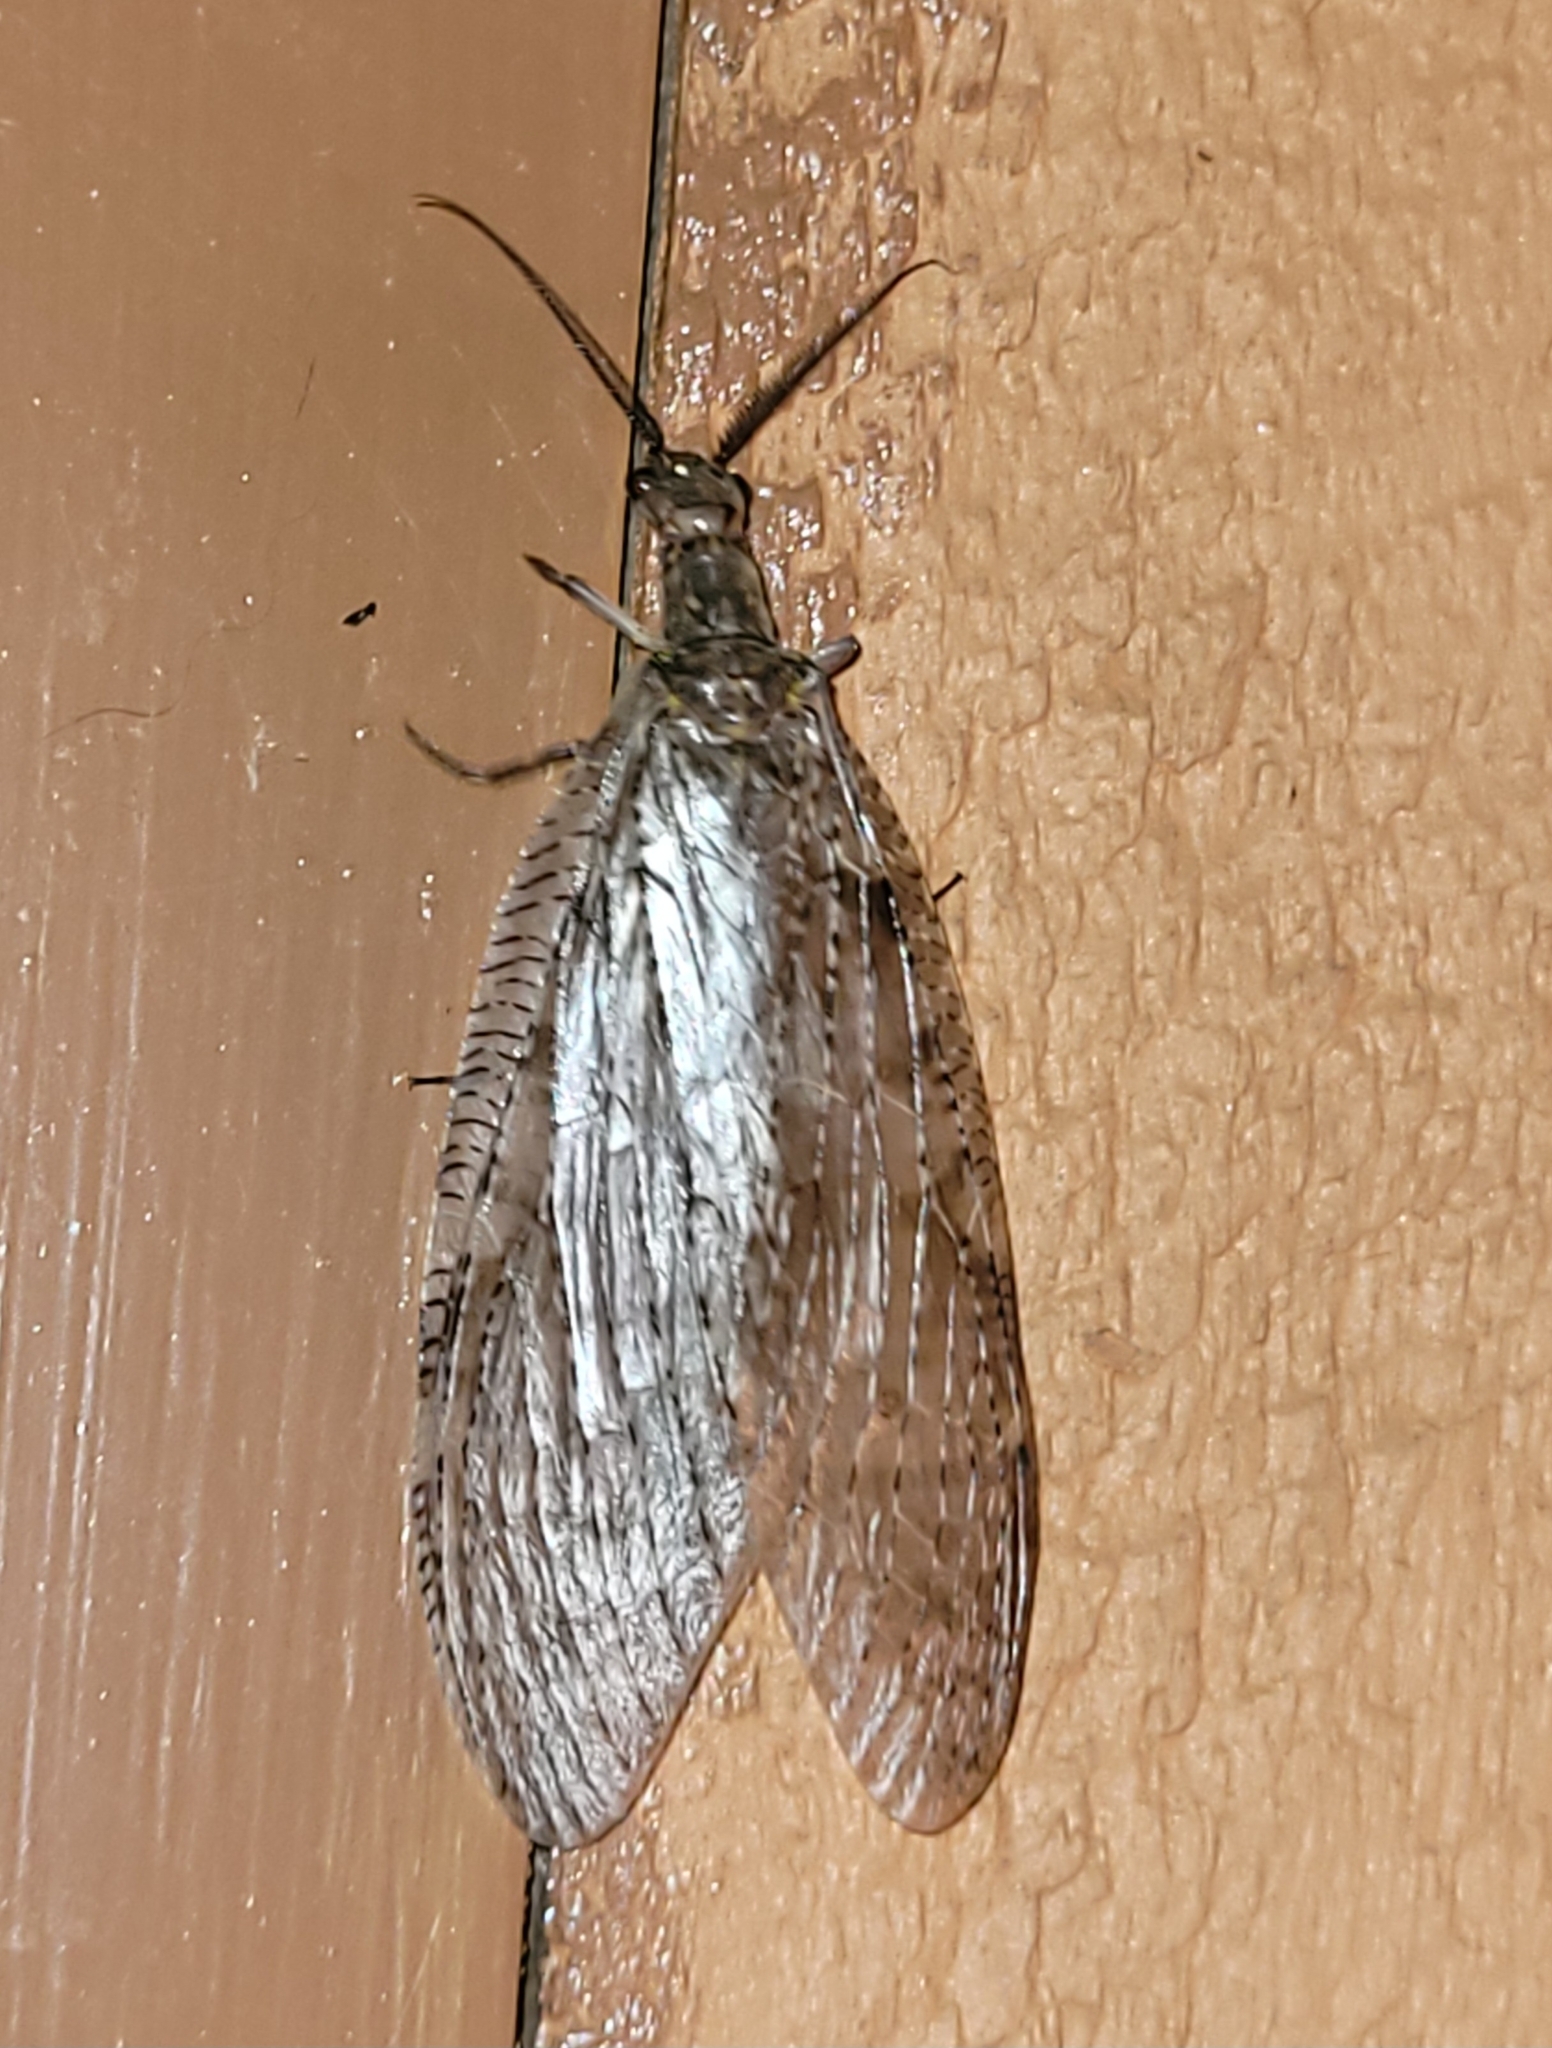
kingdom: Animalia
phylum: Arthropoda
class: Insecta
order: Megaloptera
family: Corydalidae
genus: Chauliodes
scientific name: Chauliodes pectinicornis
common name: Summer fishfly
